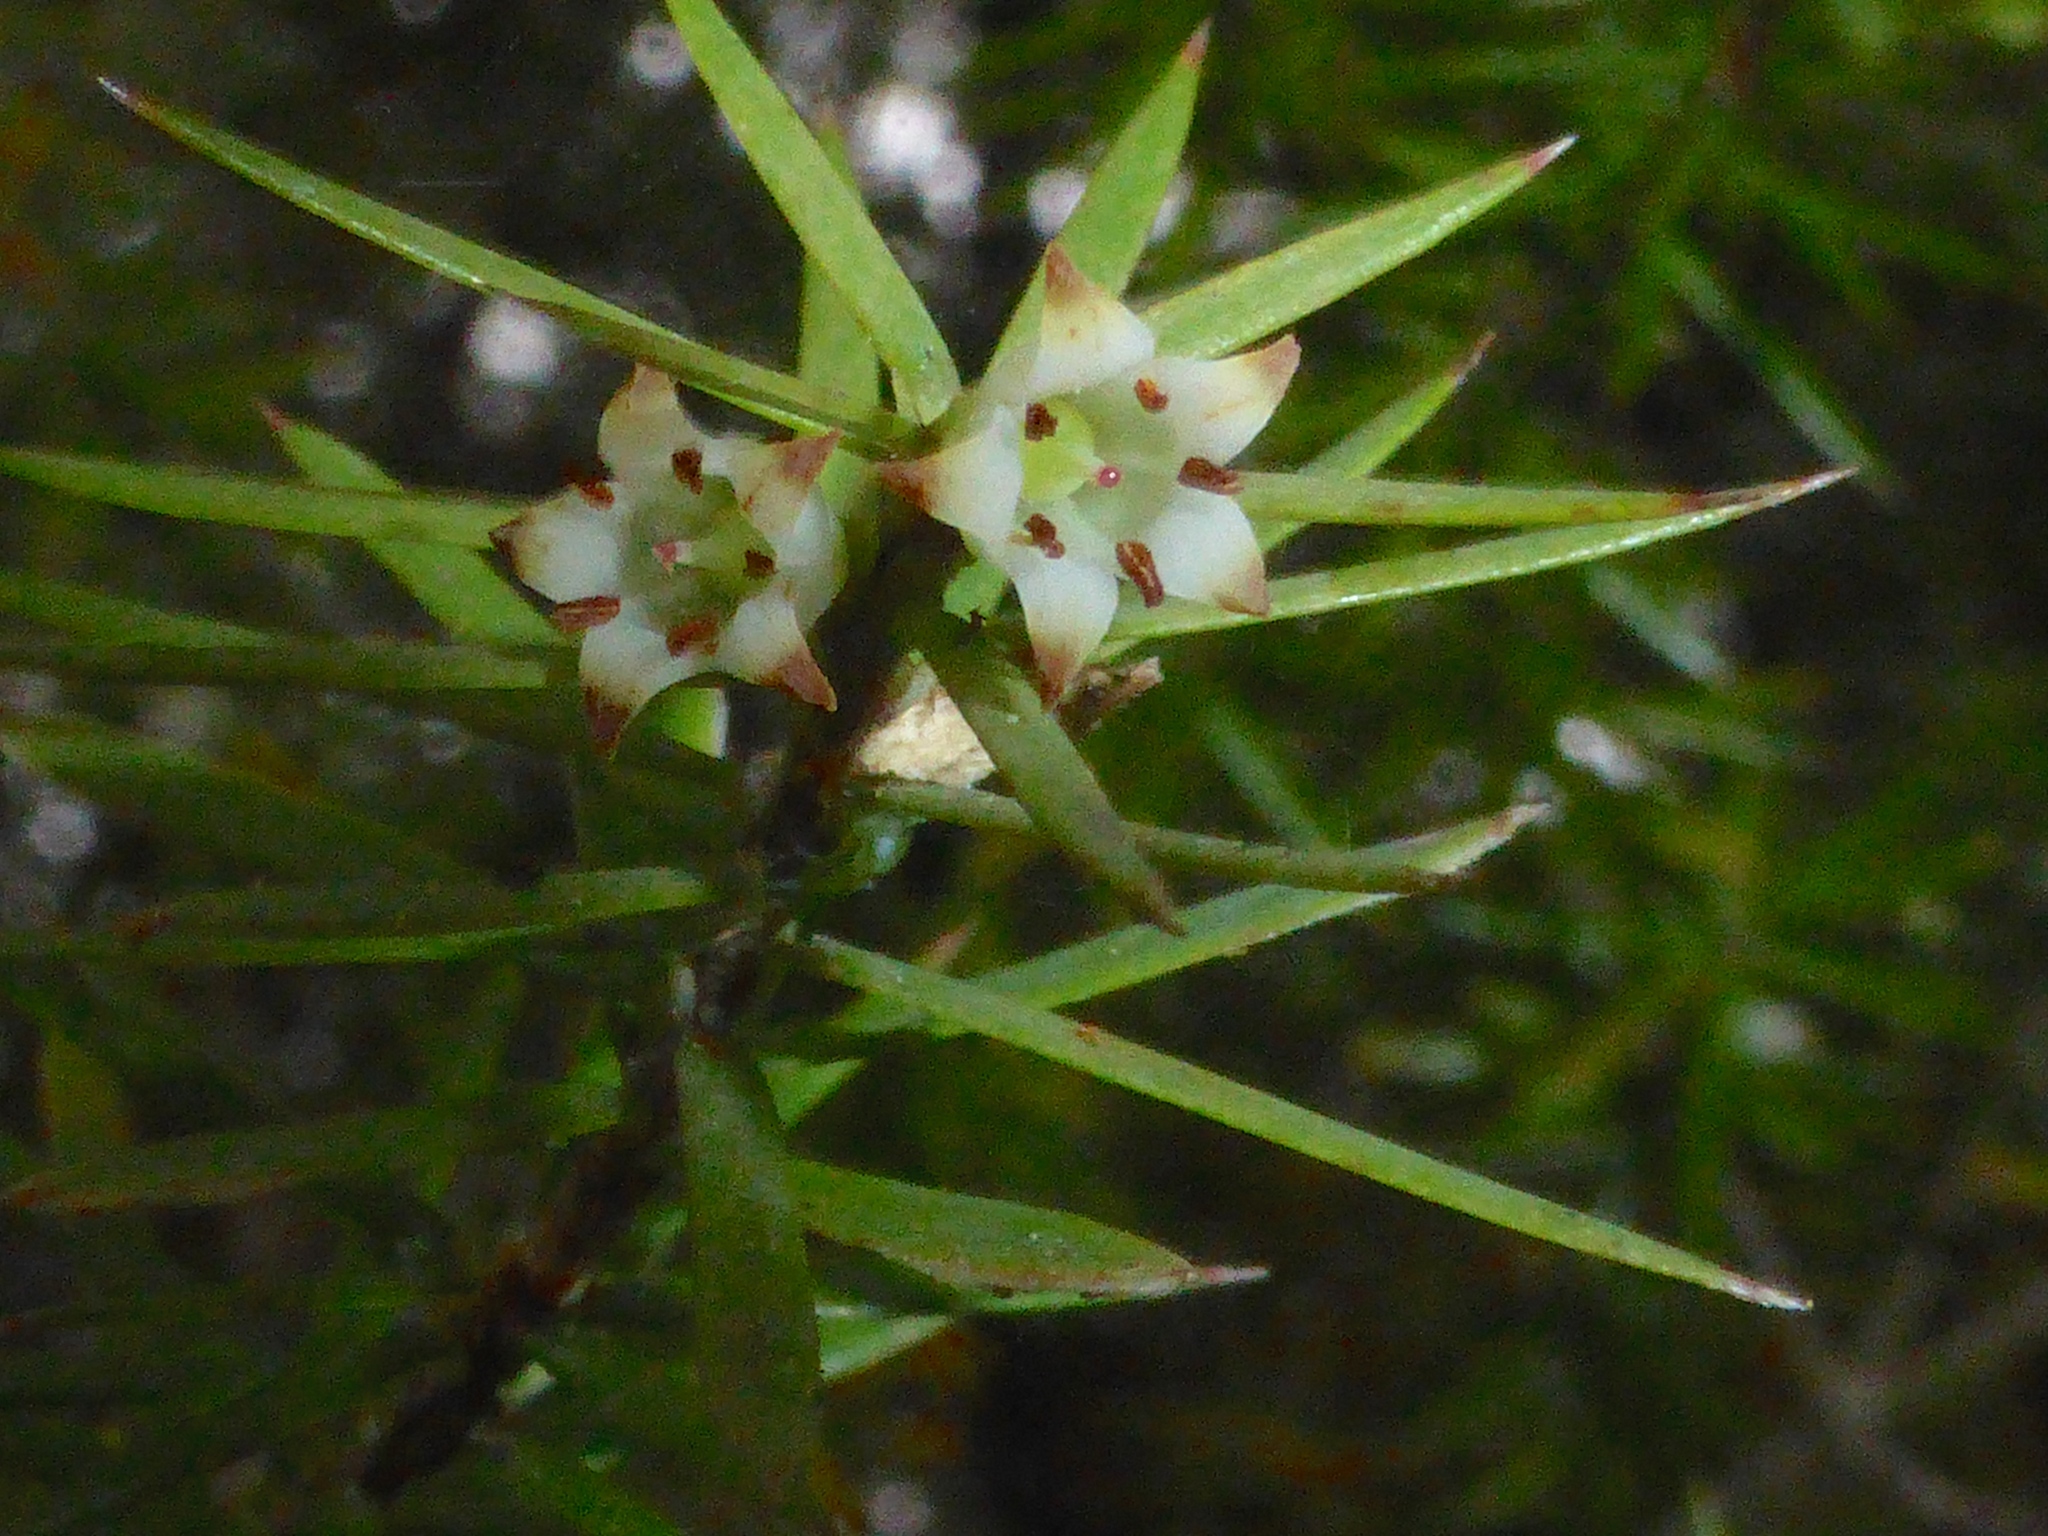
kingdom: Plantae
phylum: Tracheophyta
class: Magnoliopsida
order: Ericales
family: Ericaceae
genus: Leptecophylla
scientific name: Leptecophylla juniperina
